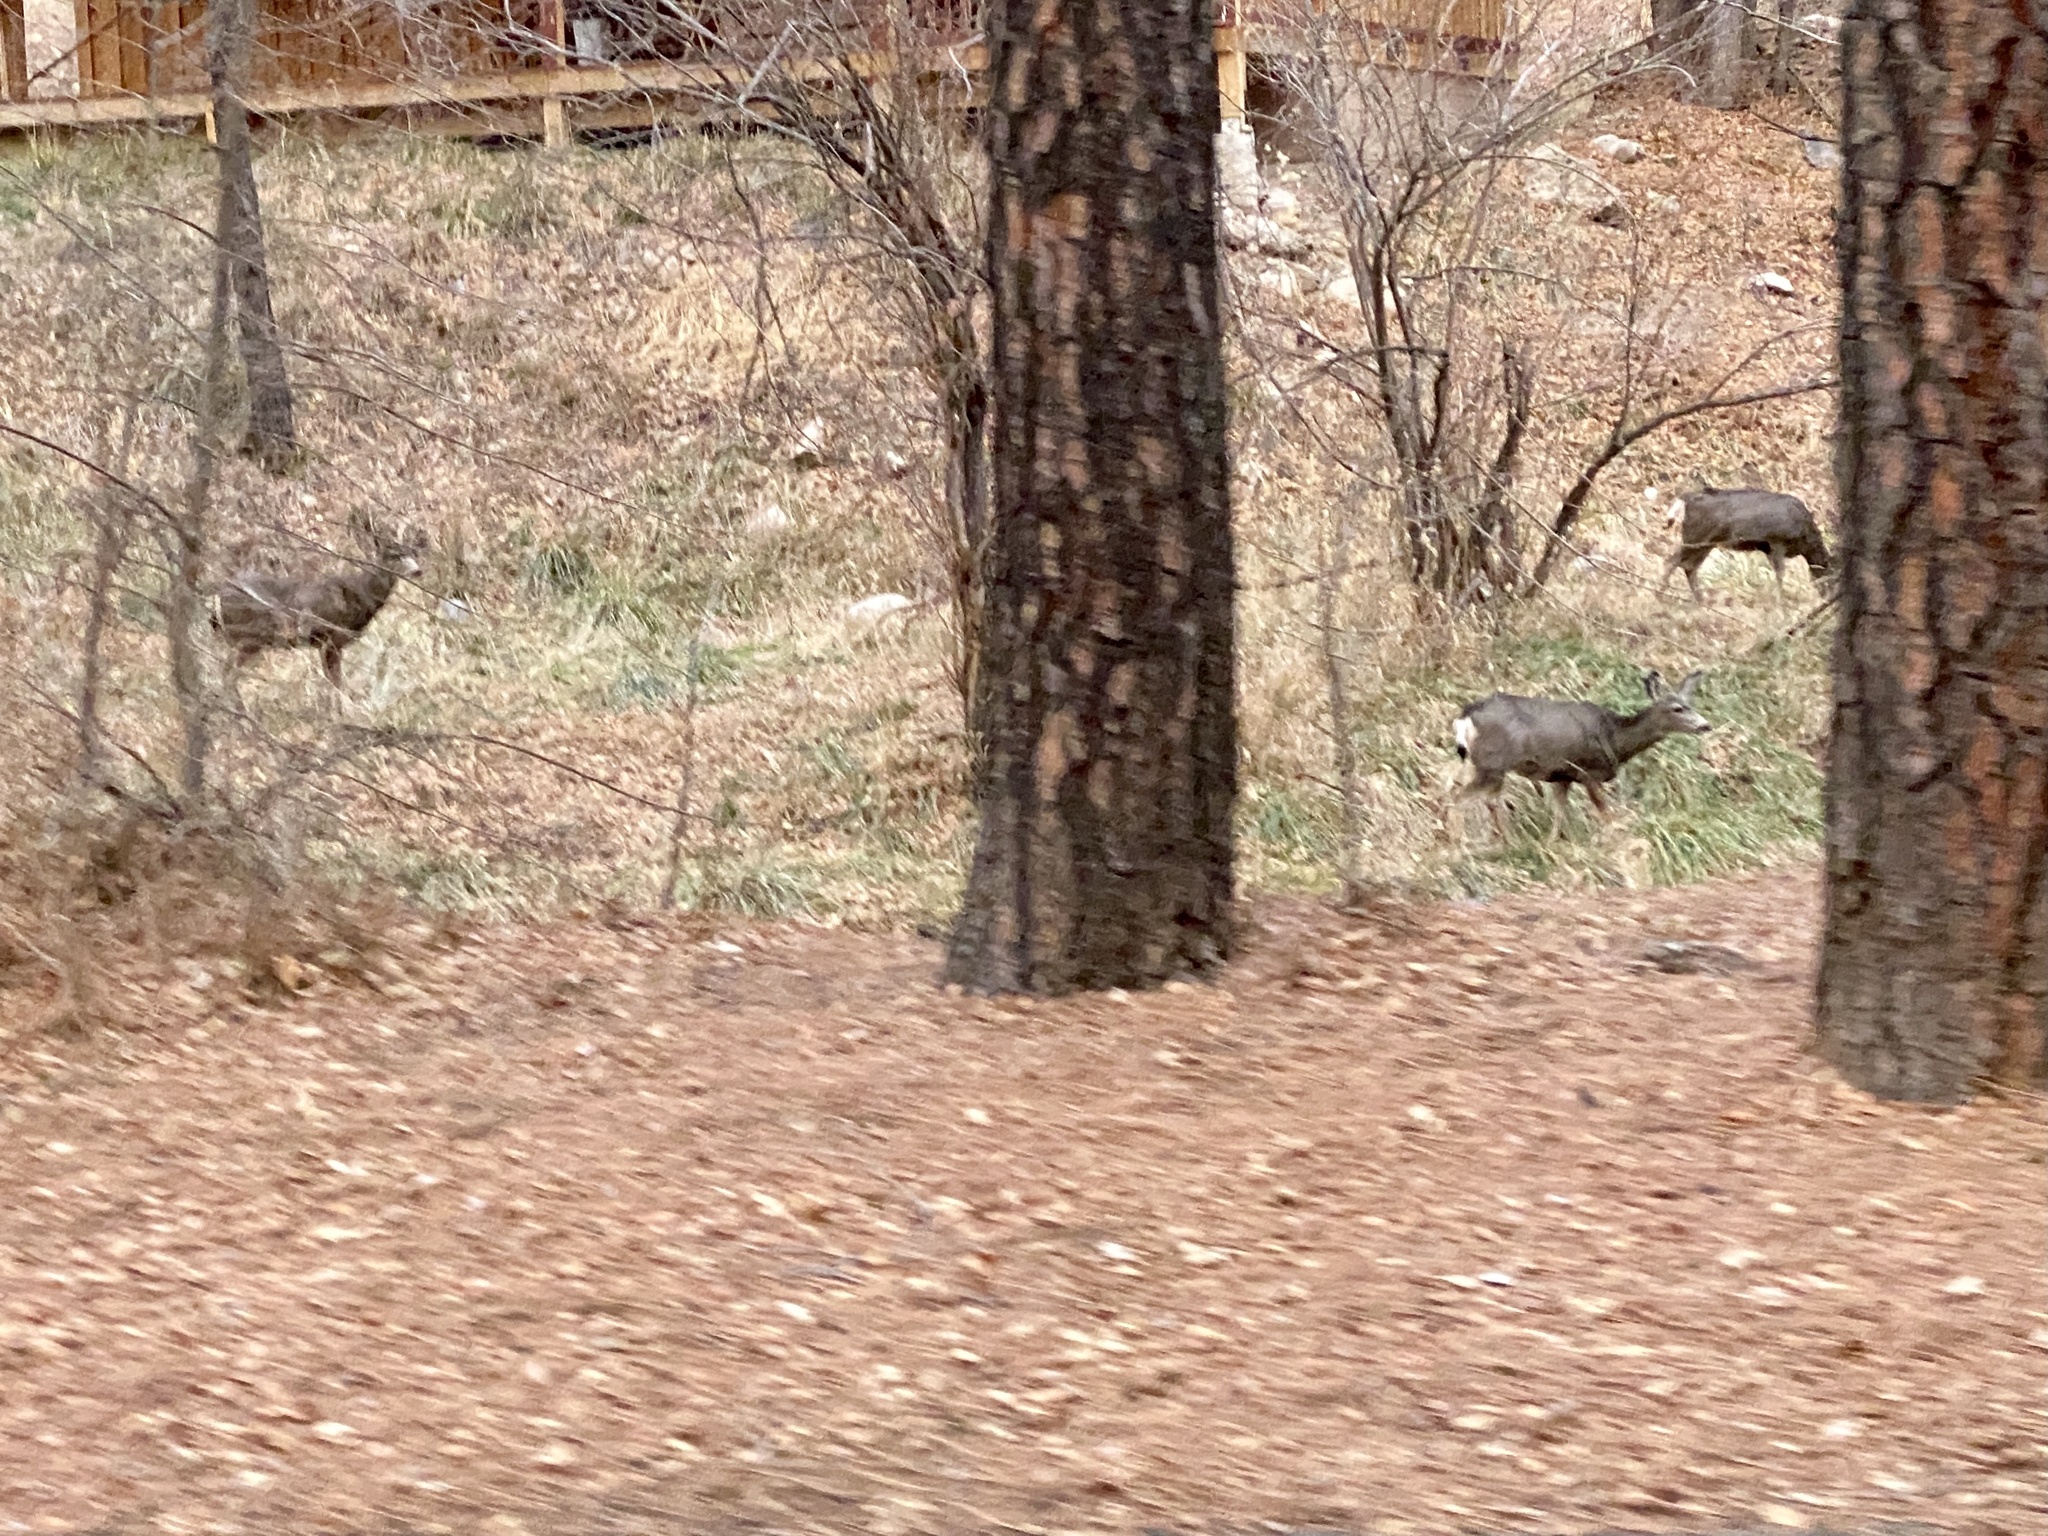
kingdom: Animalia
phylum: Chordata
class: Mammalia
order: Artiodactyla
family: Cervidae
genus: Odocoileus
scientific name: Odocoileus hemionus
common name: Mule deer
